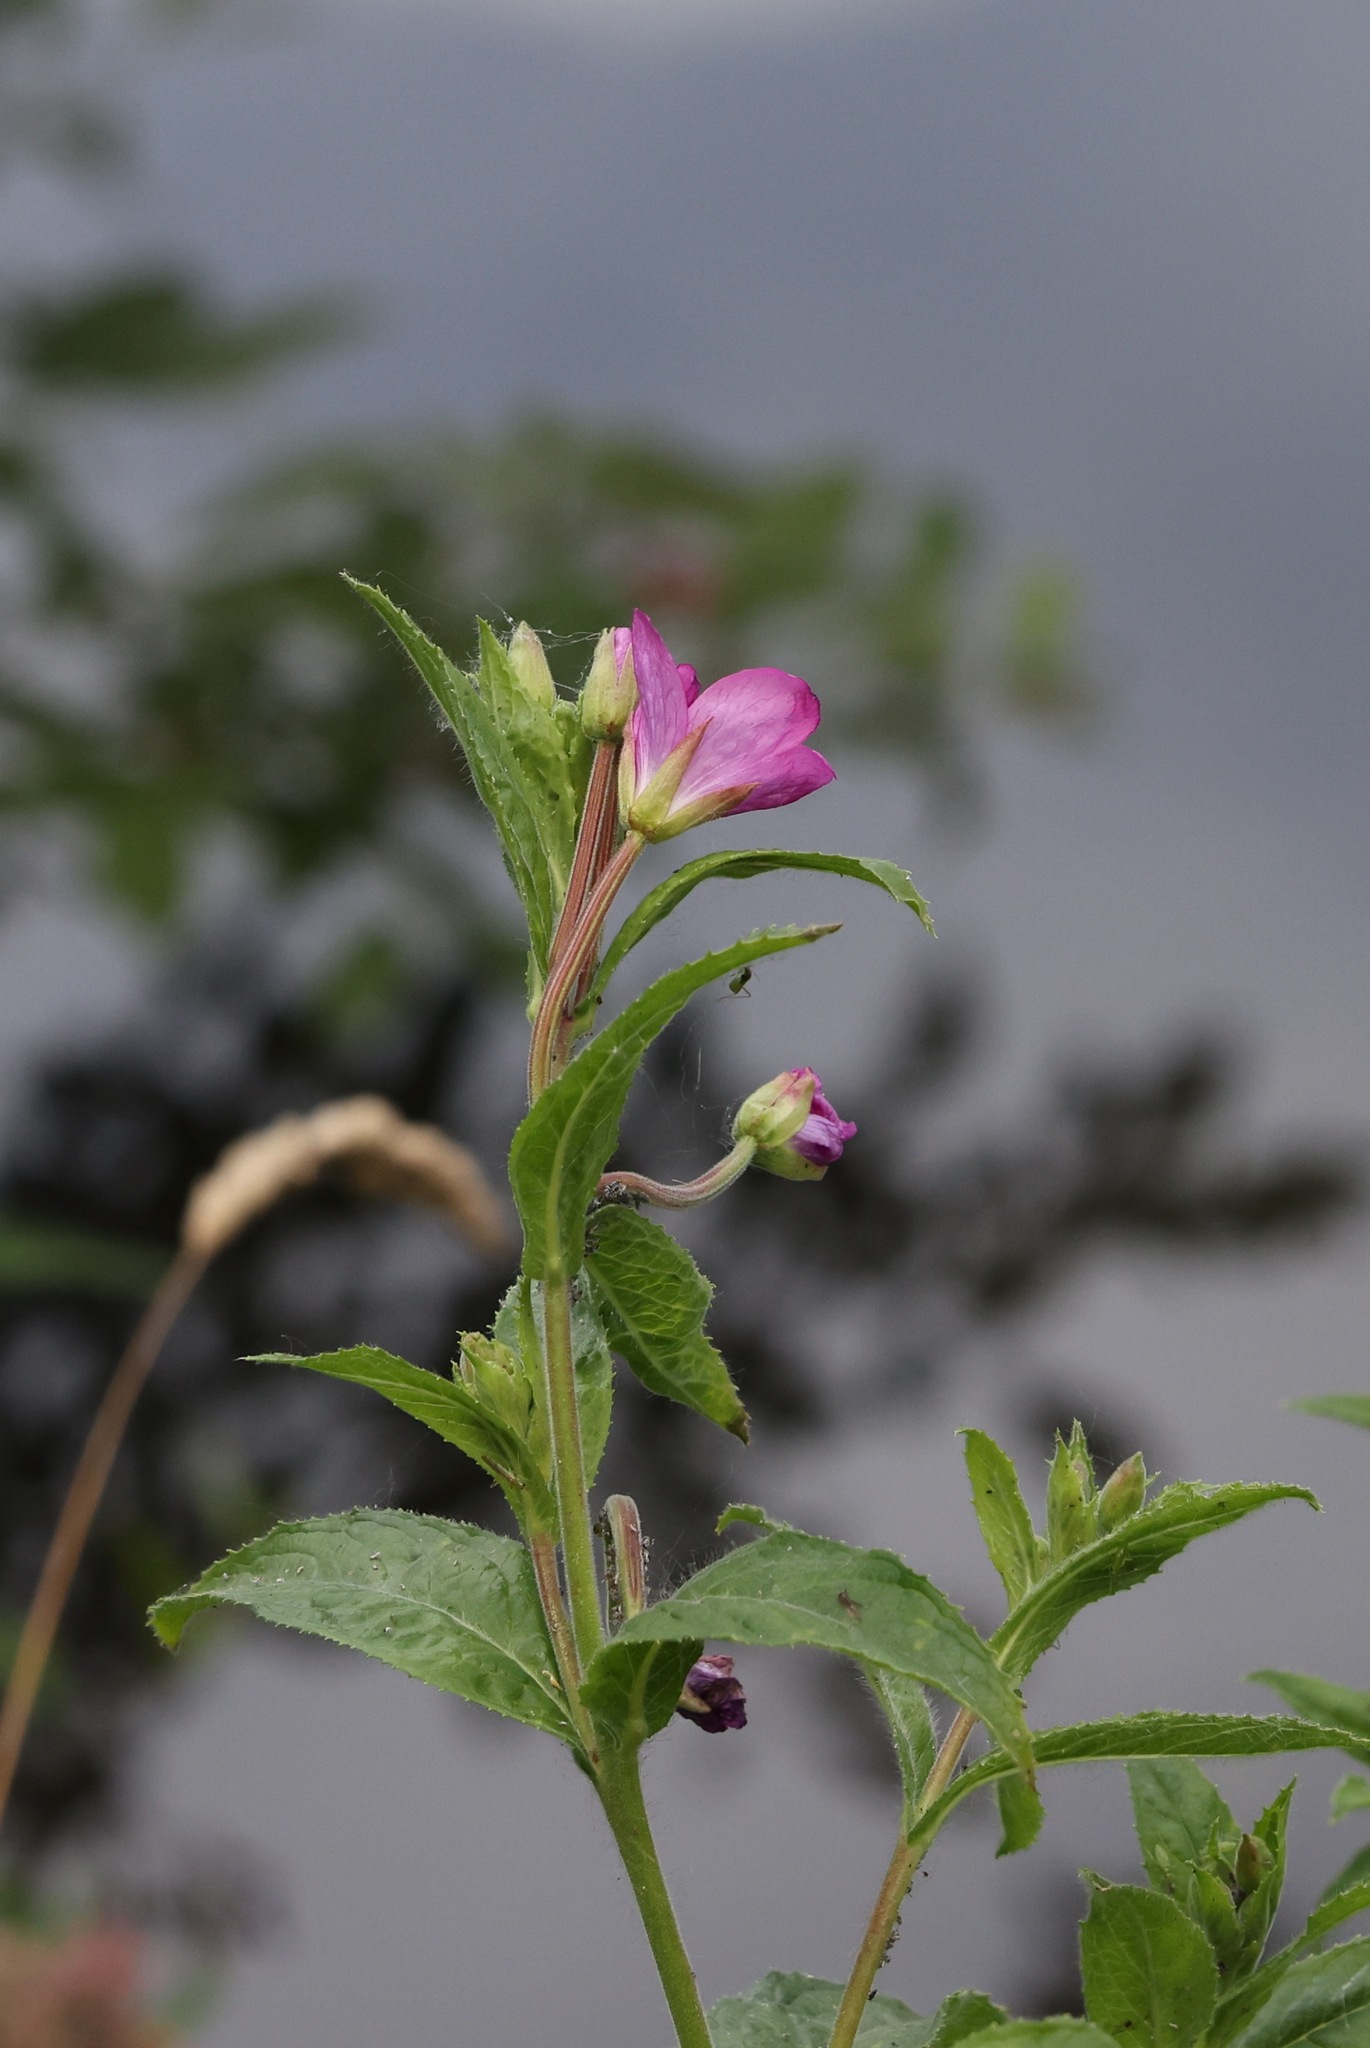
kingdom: Plantae
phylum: Tracheophyta
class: Magnoliopsida
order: Myrtales
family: Onagraceae
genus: Epilobium
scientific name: Epilobium hirsutum
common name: Great willowherb
